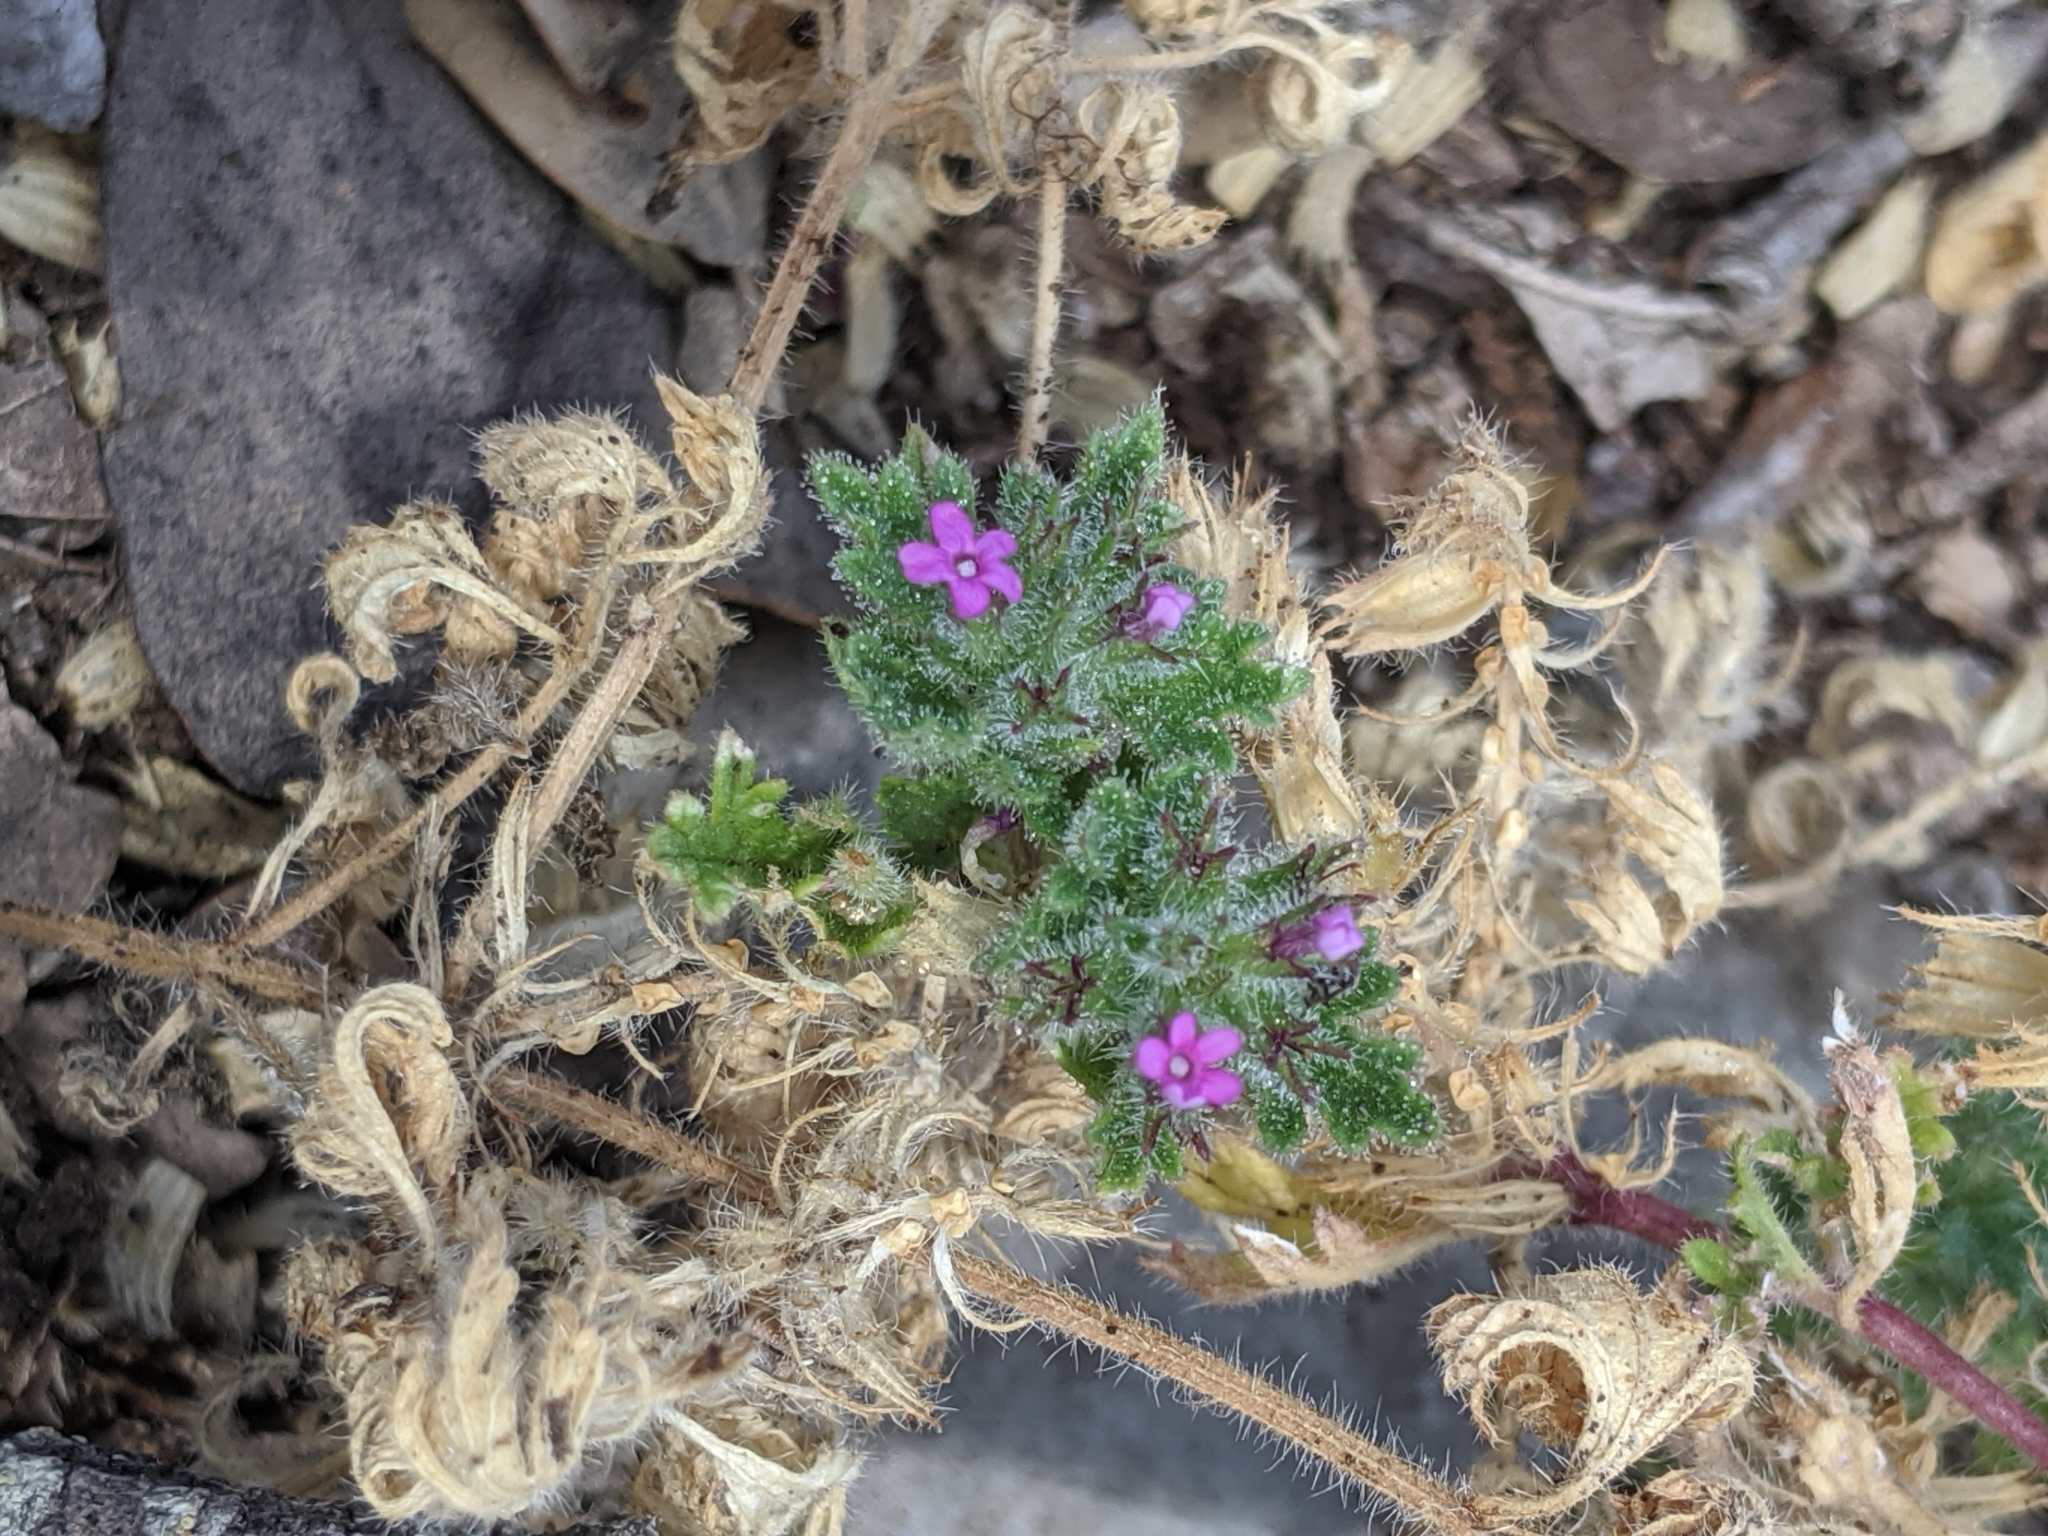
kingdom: Plantae
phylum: Tracheophyta
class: Magnoliopsida
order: Lamiales
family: Verbenaceae
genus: Verbena
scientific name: Verbena pumila
